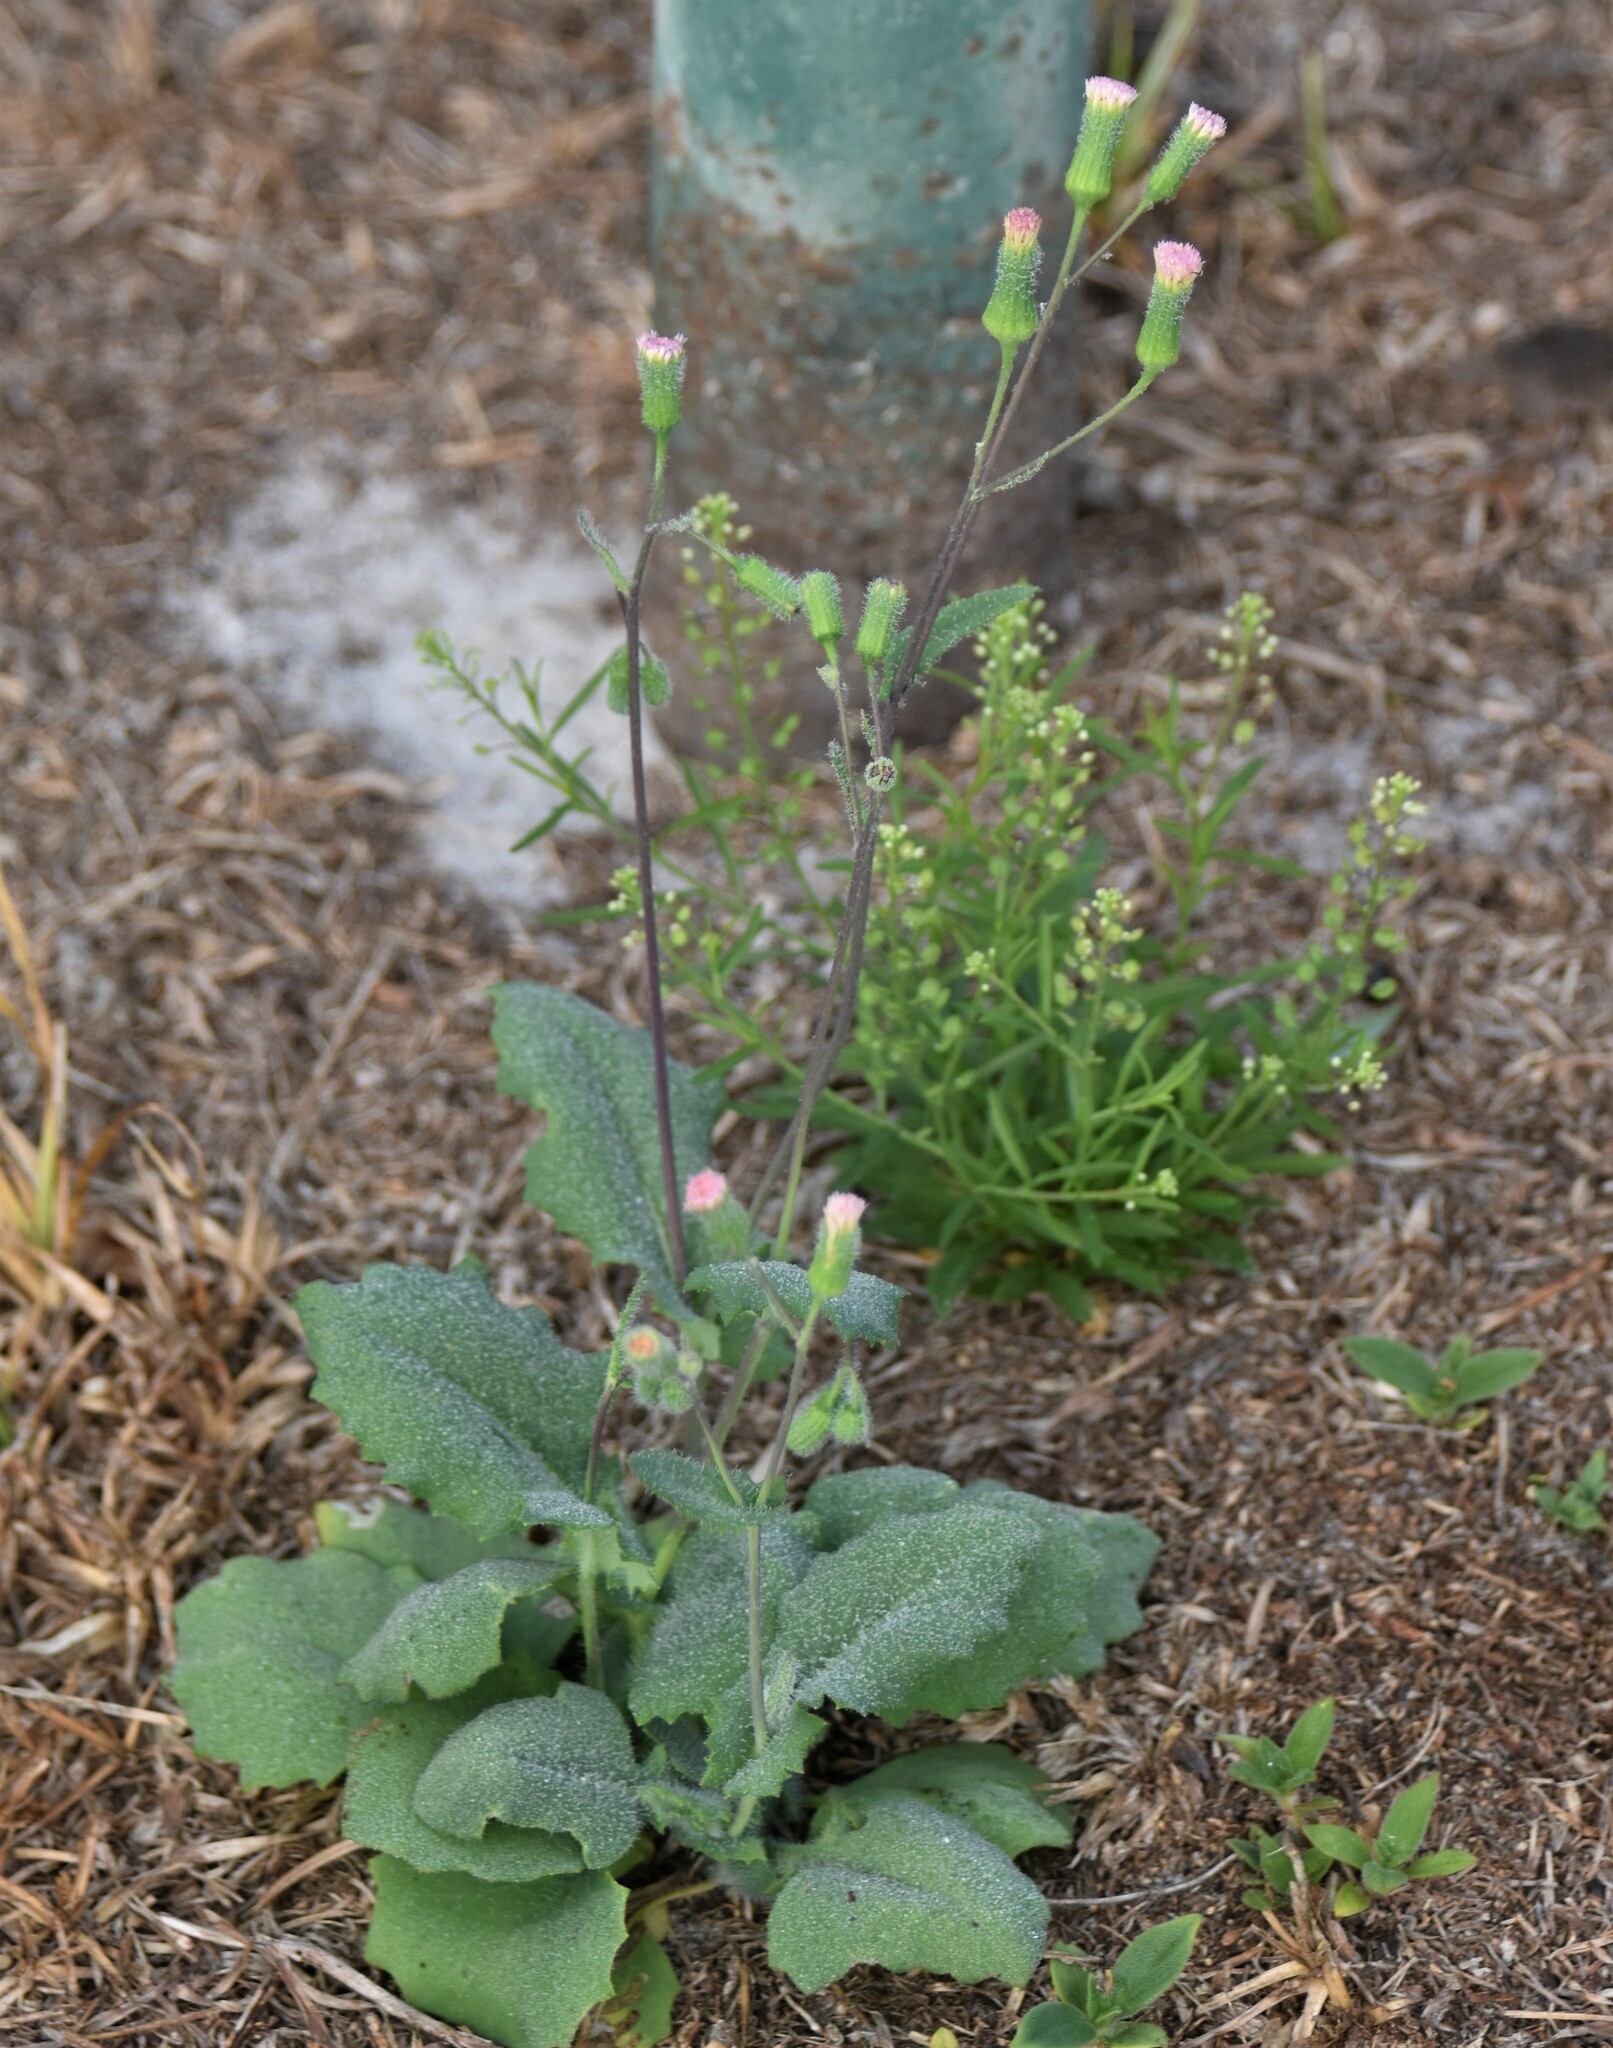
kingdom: Plantae
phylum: Tracheophyta
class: Magnoliopsida
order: Asterales
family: Asteraceae
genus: Emilia
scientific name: Emilia sonchifolia
